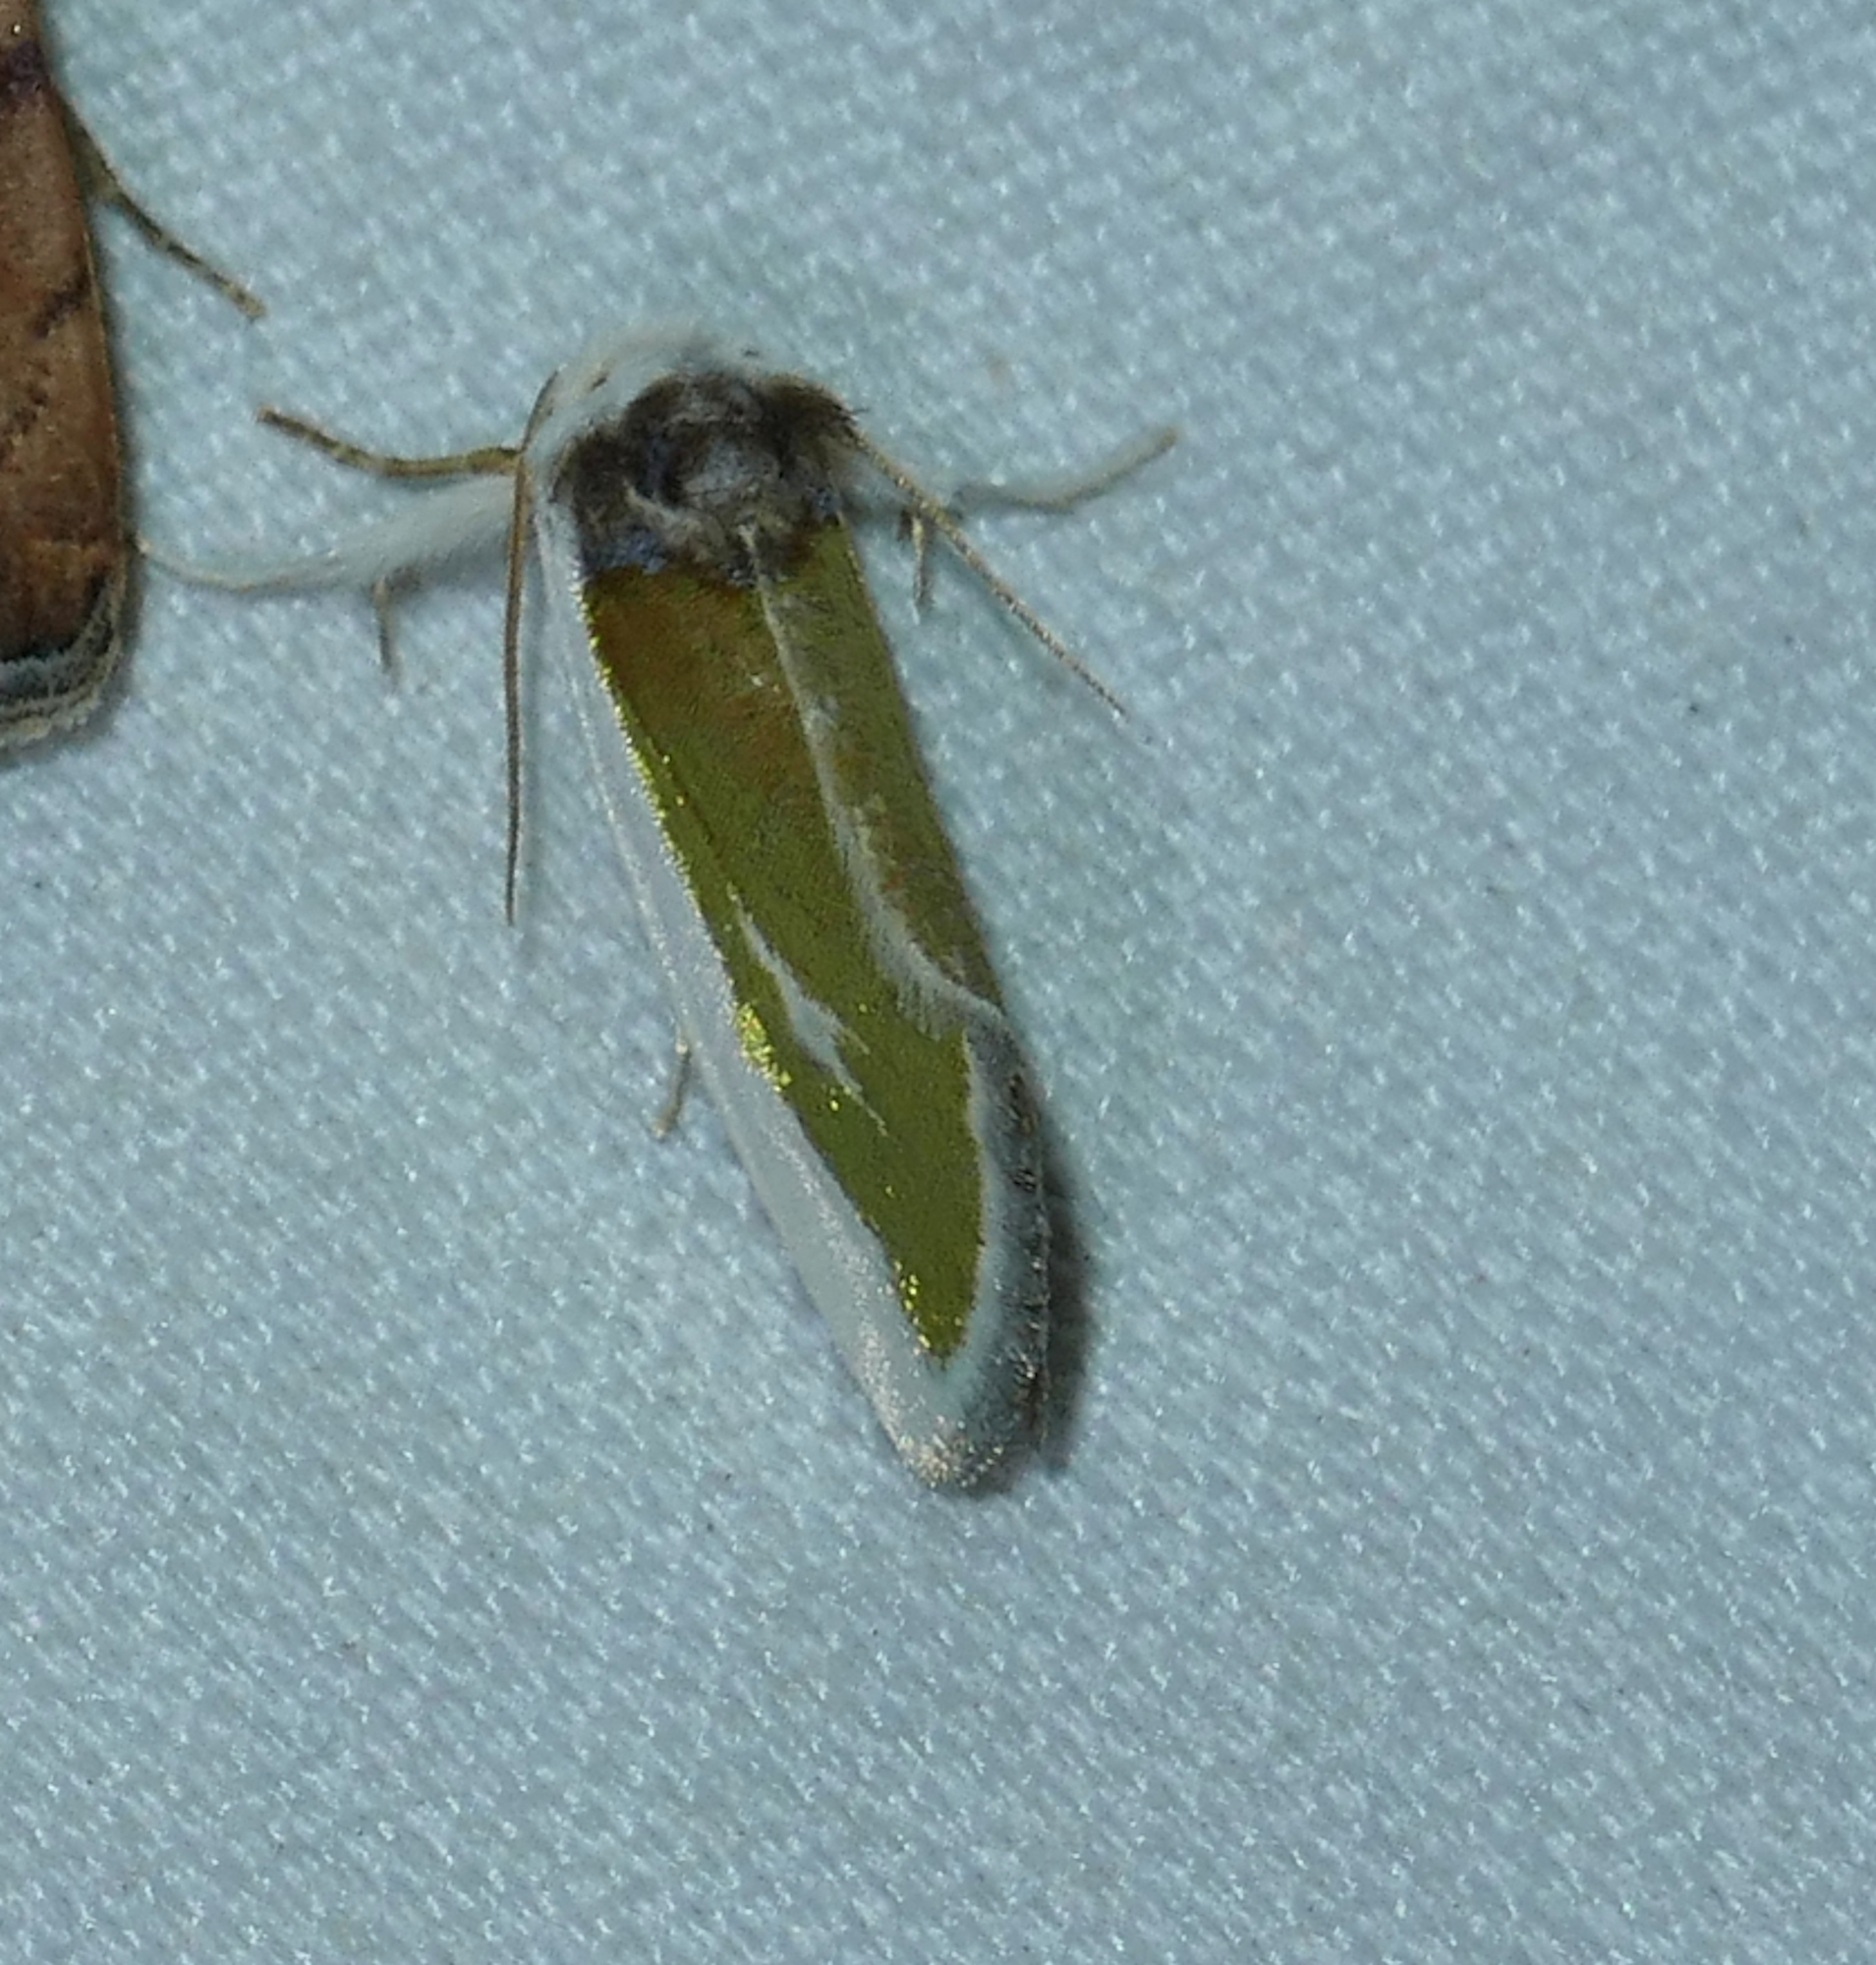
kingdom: Animalia
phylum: Arthropoda
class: Insecta
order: Lepidoptera
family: Noctuidae
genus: Neumoegenia
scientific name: Neumoegenia poetica
